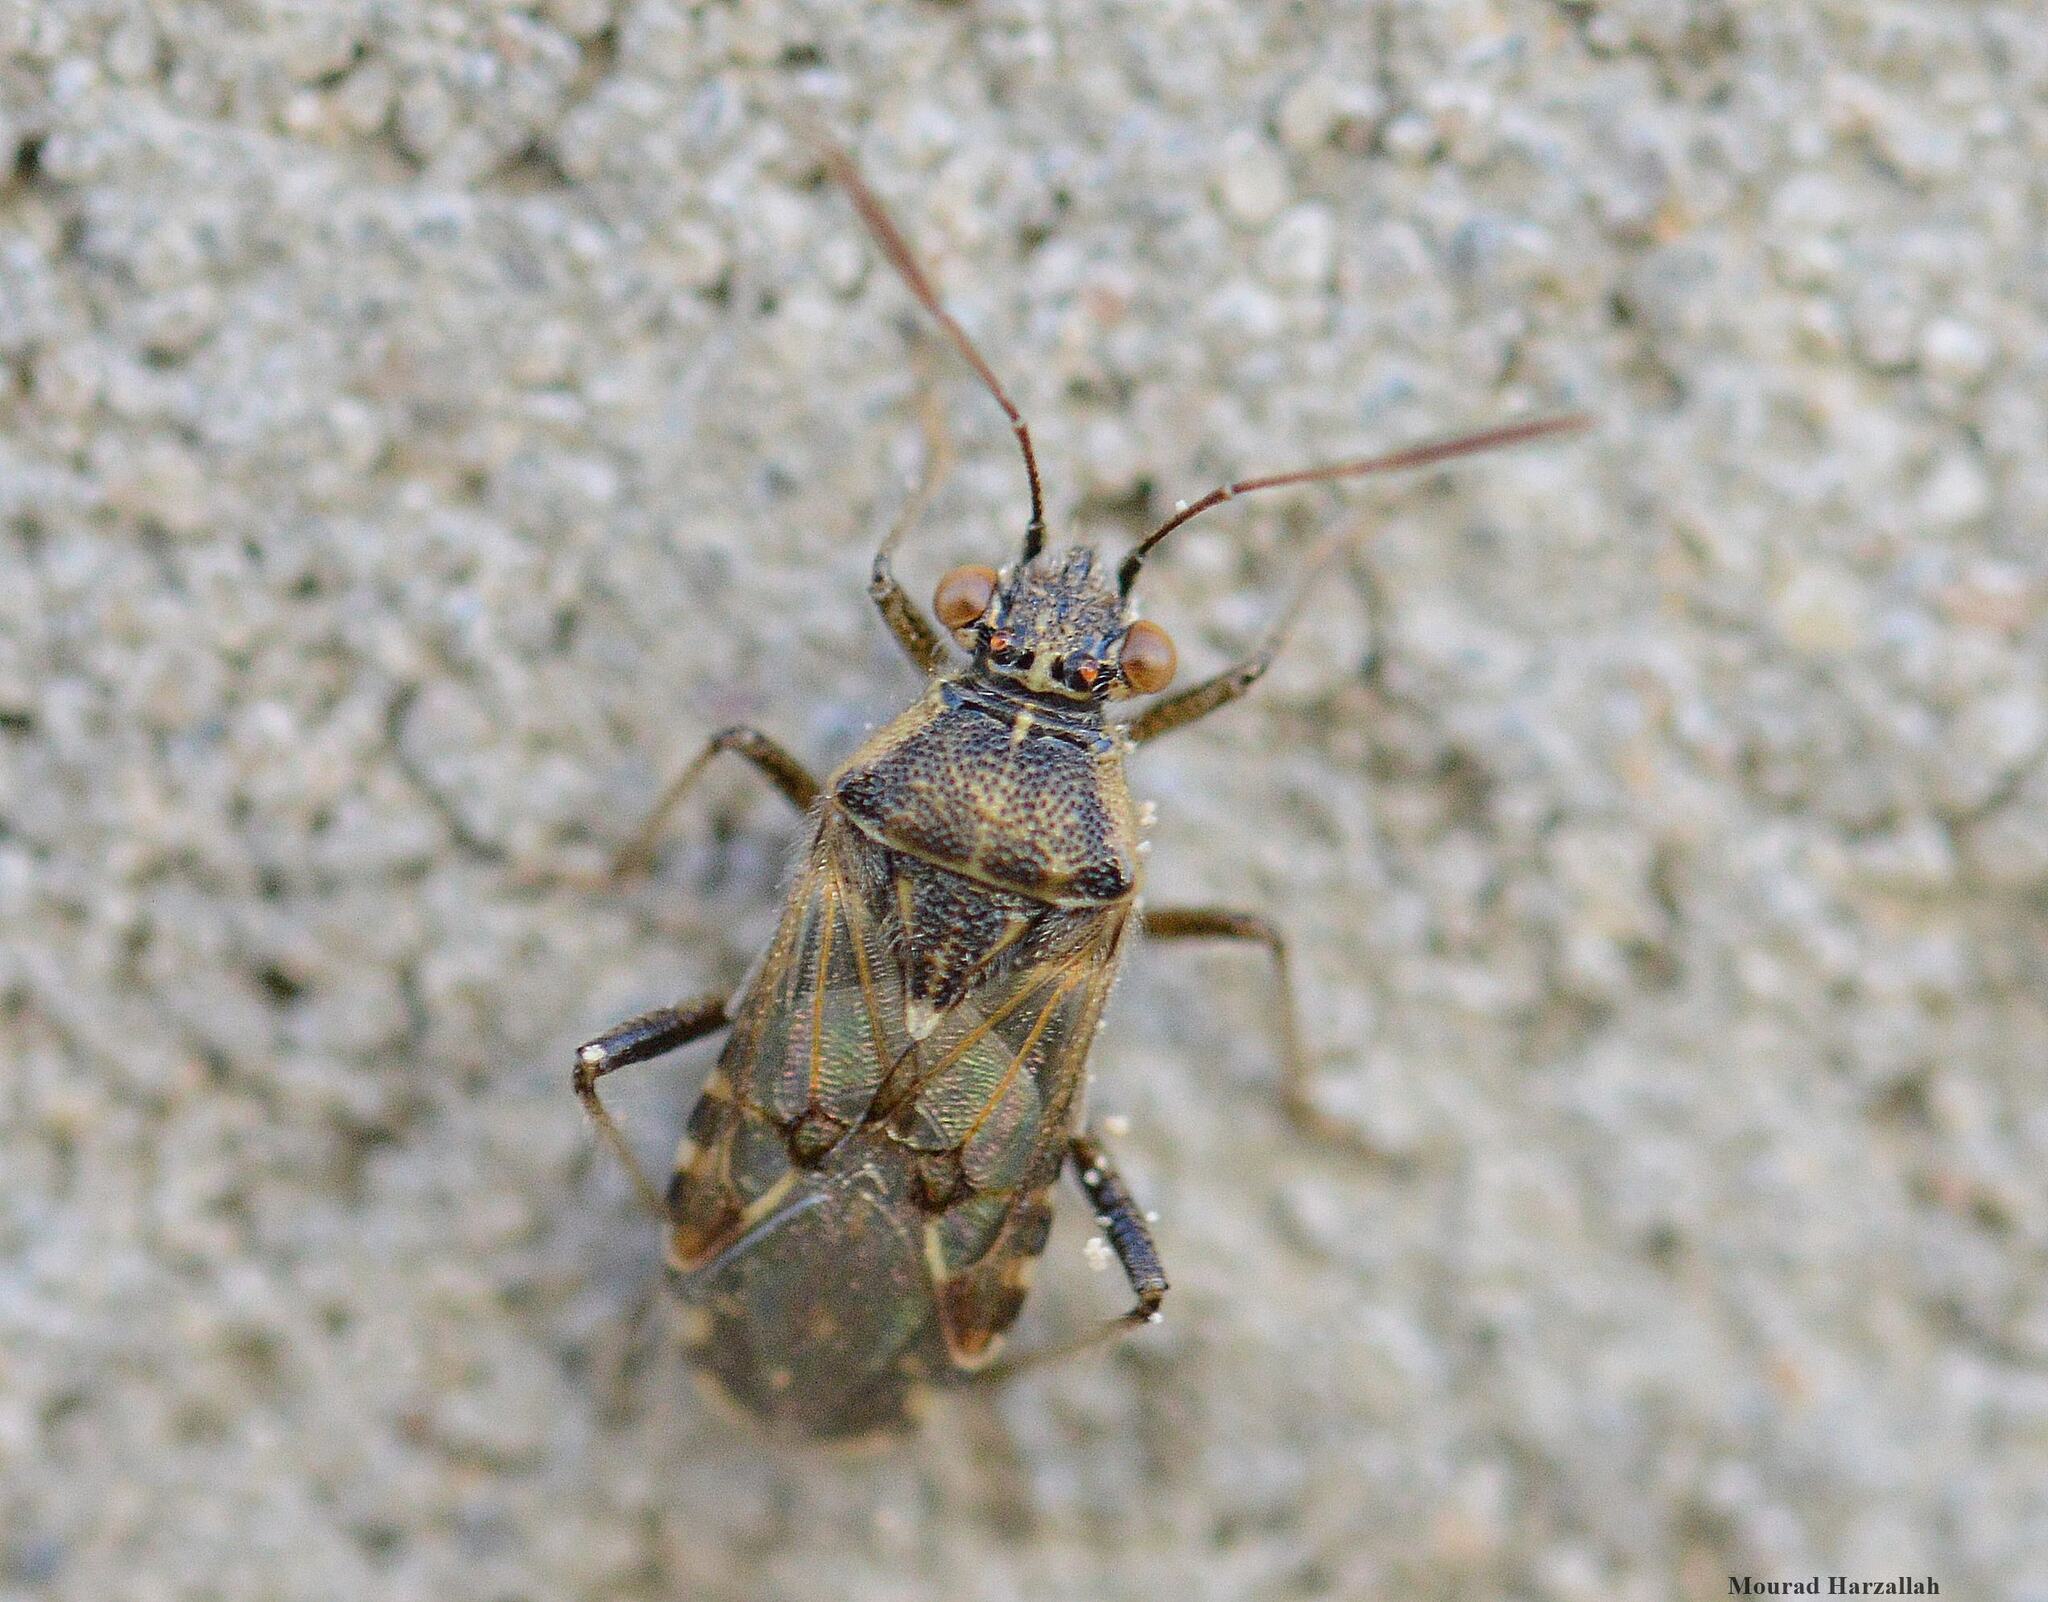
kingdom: Animalia
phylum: Arthropoda
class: Insecta
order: Hemiptera
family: Rhopalidae
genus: Liorhyssus
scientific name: Liorhyssus hyalinus
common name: Scentless plant bug
